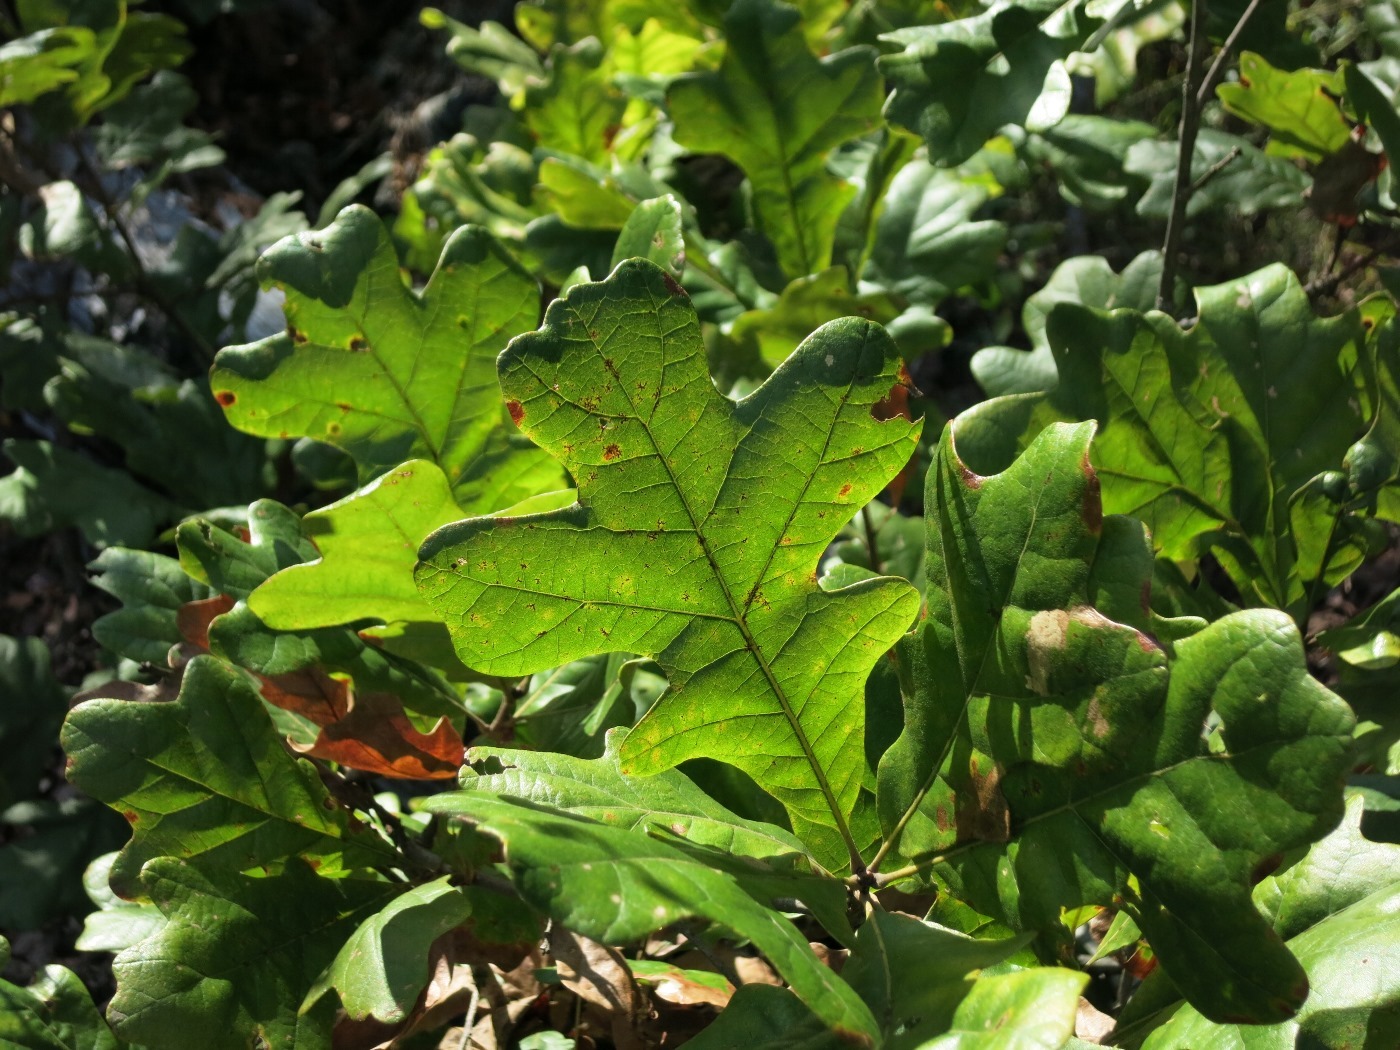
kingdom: Plantae
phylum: Tracheophyta
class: Magnoliopsida
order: Fagales
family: Fagaceae
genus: Quercus
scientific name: Quercus stellata
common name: Post oak
